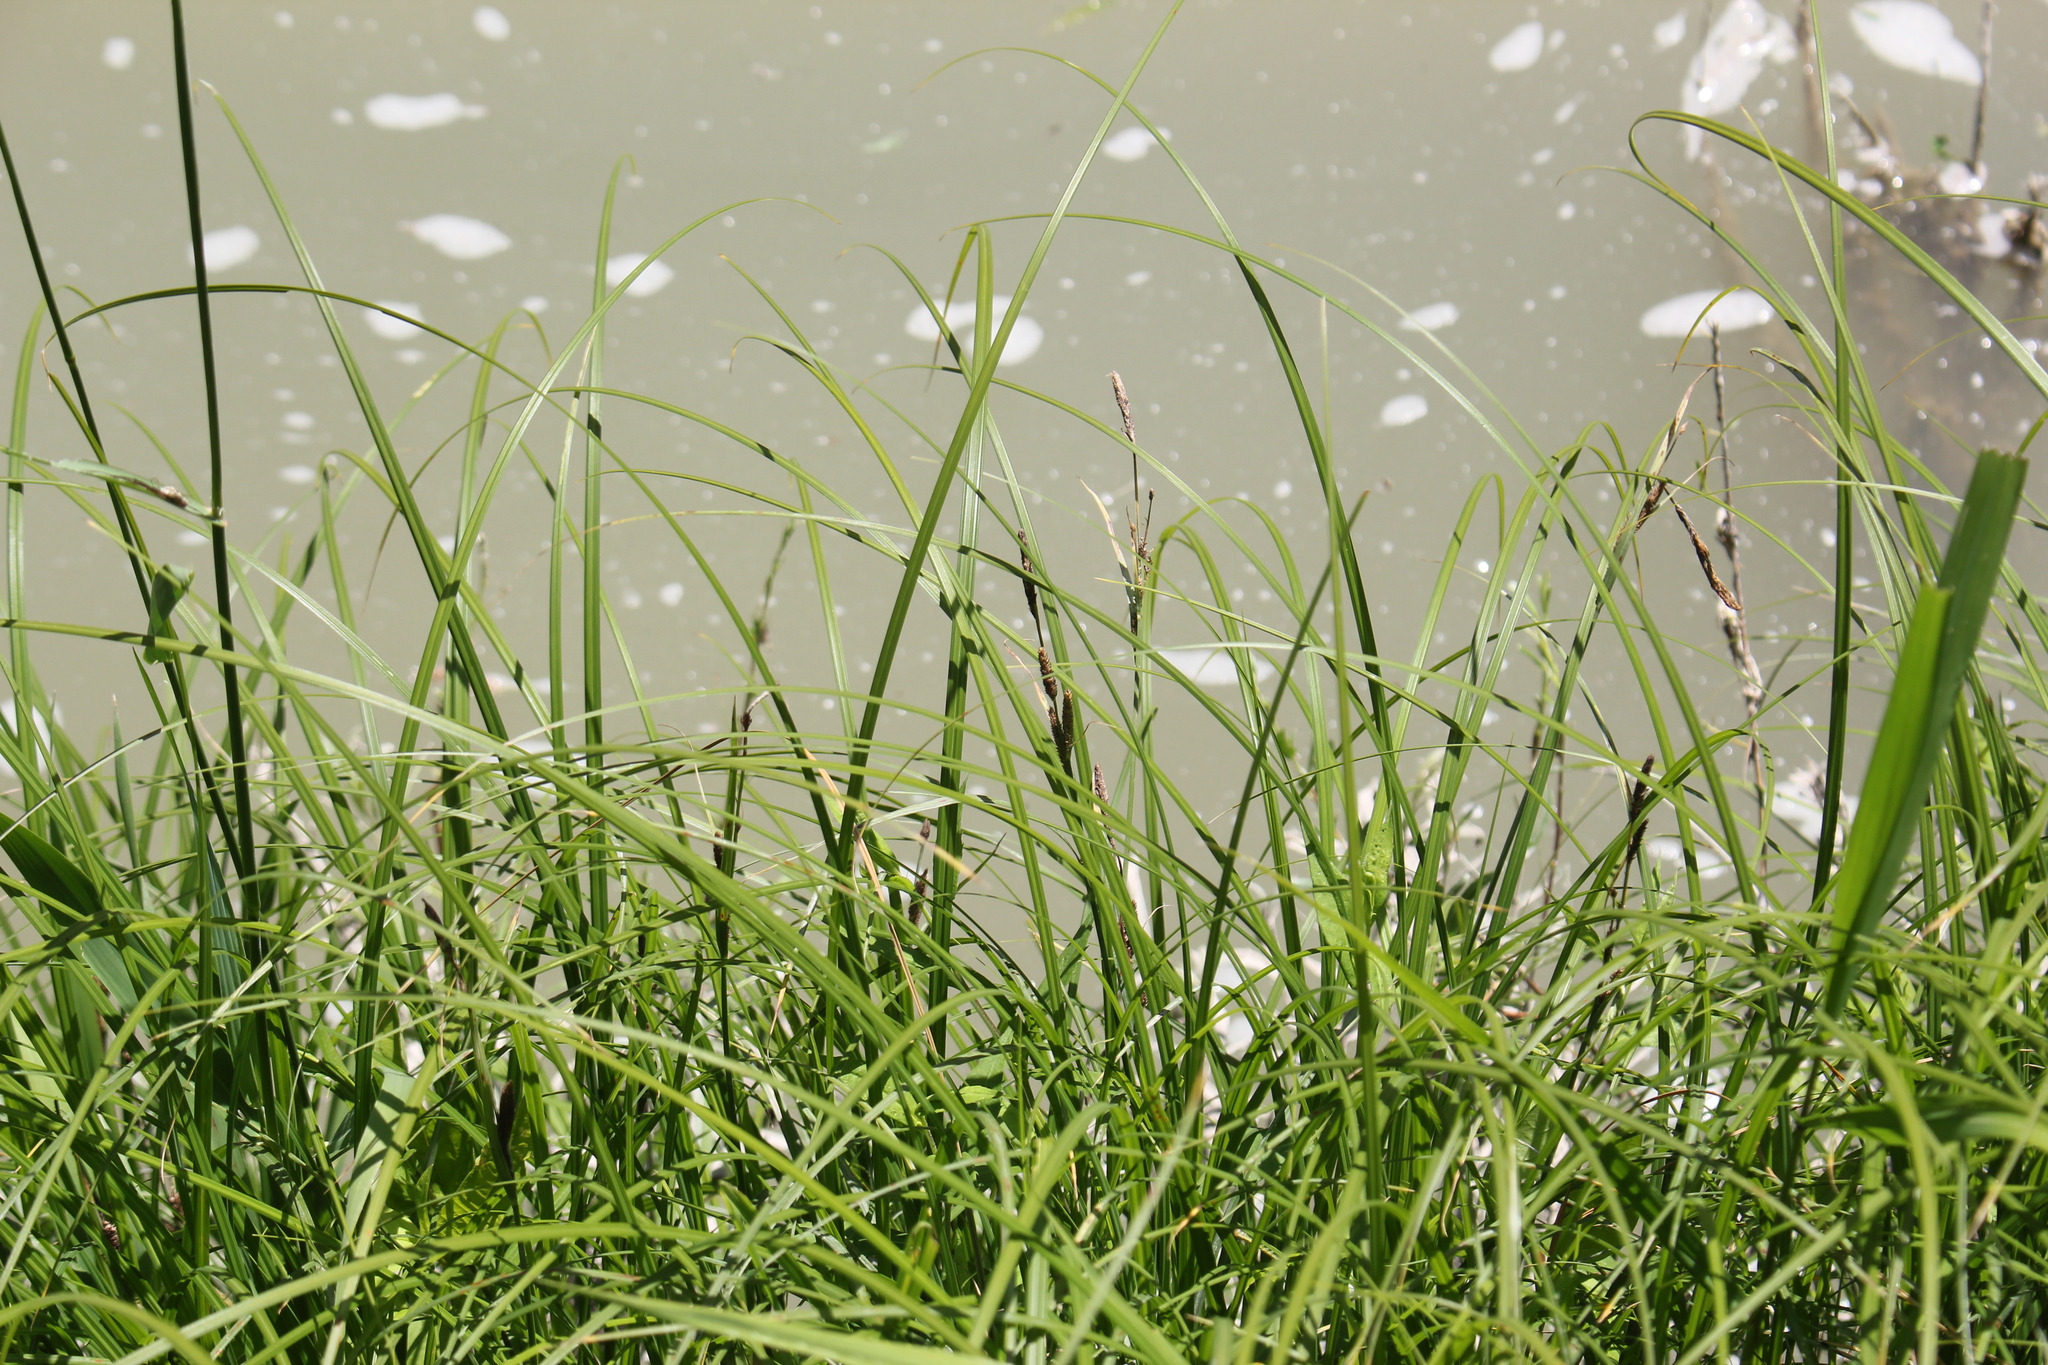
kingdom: Plantae
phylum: Tracheophyta
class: Liliopsida
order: Poales
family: Cyperaceae
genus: Carex
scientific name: Carex emoryi
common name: Emory's sedge
